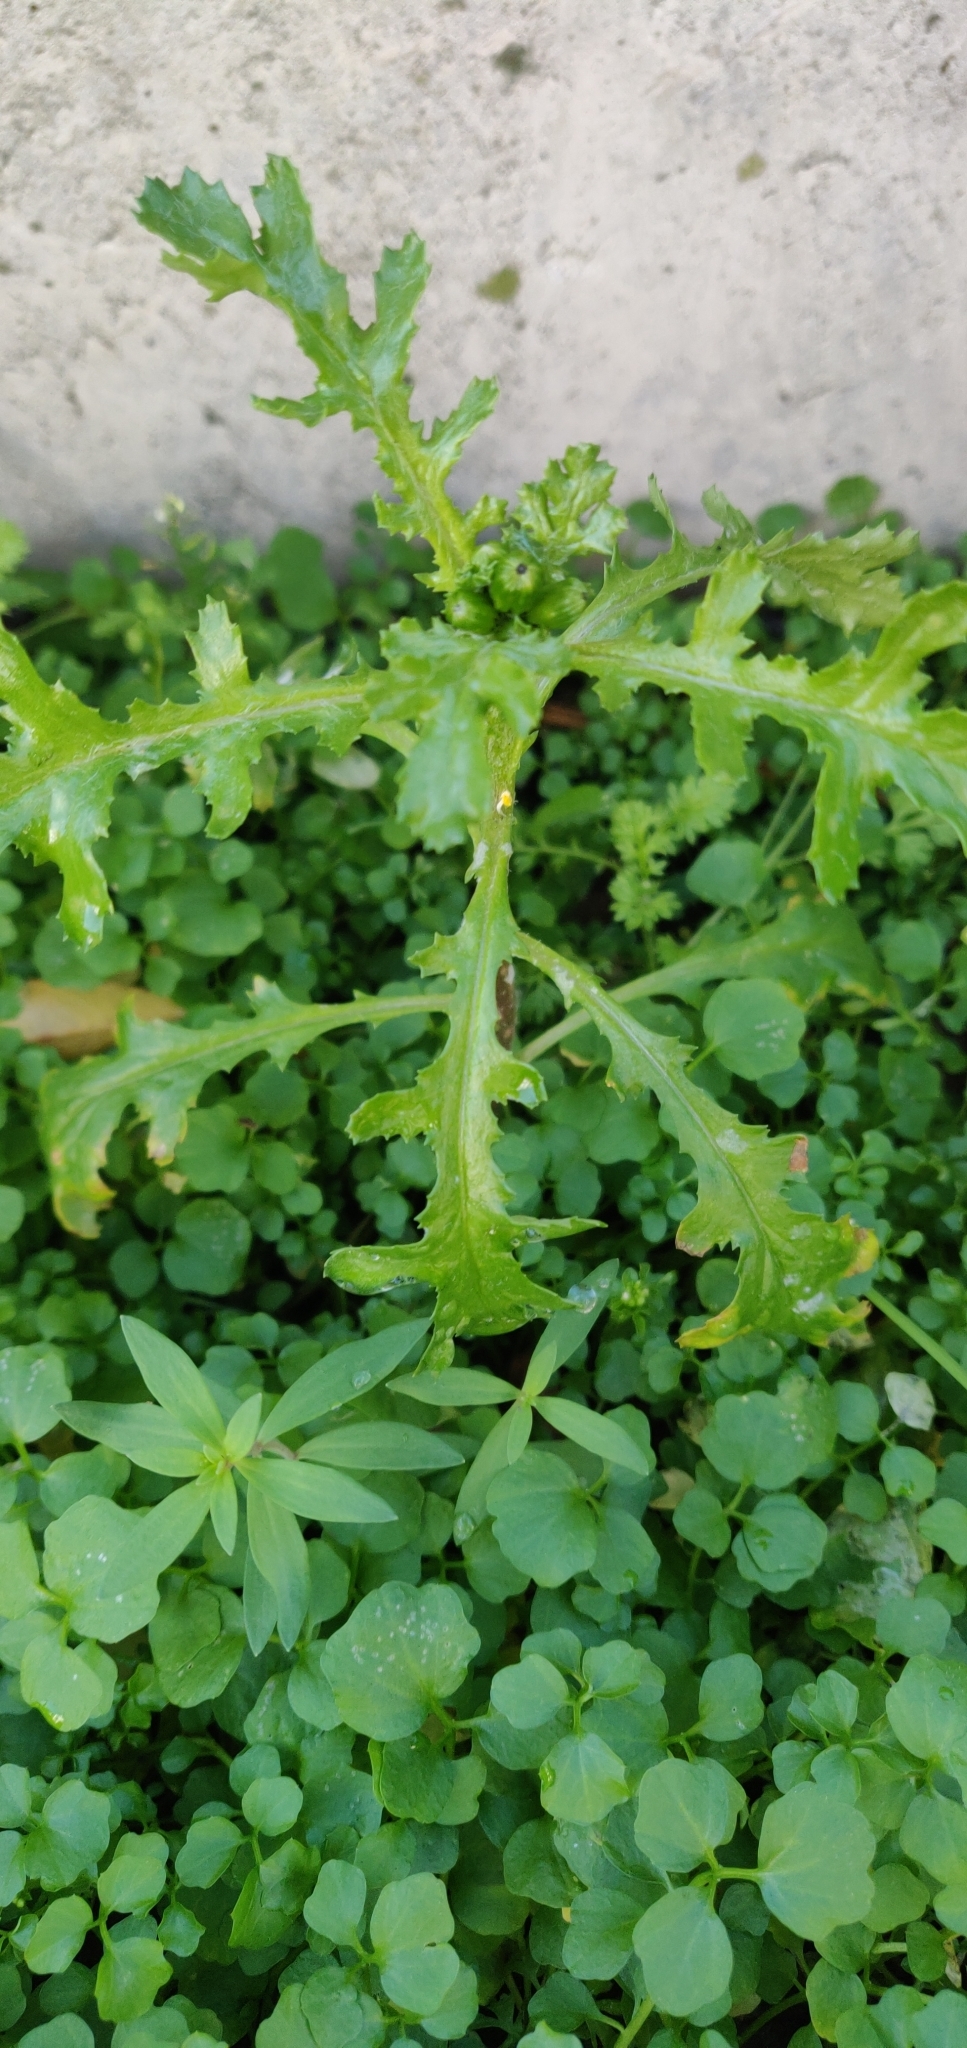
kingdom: Plantae
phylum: Tracheophyta
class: Magnoliopsida
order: Asterales
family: Asteraceae
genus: Senecio
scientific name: Senecio vulgaris
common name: Old-man-in-the-spring
